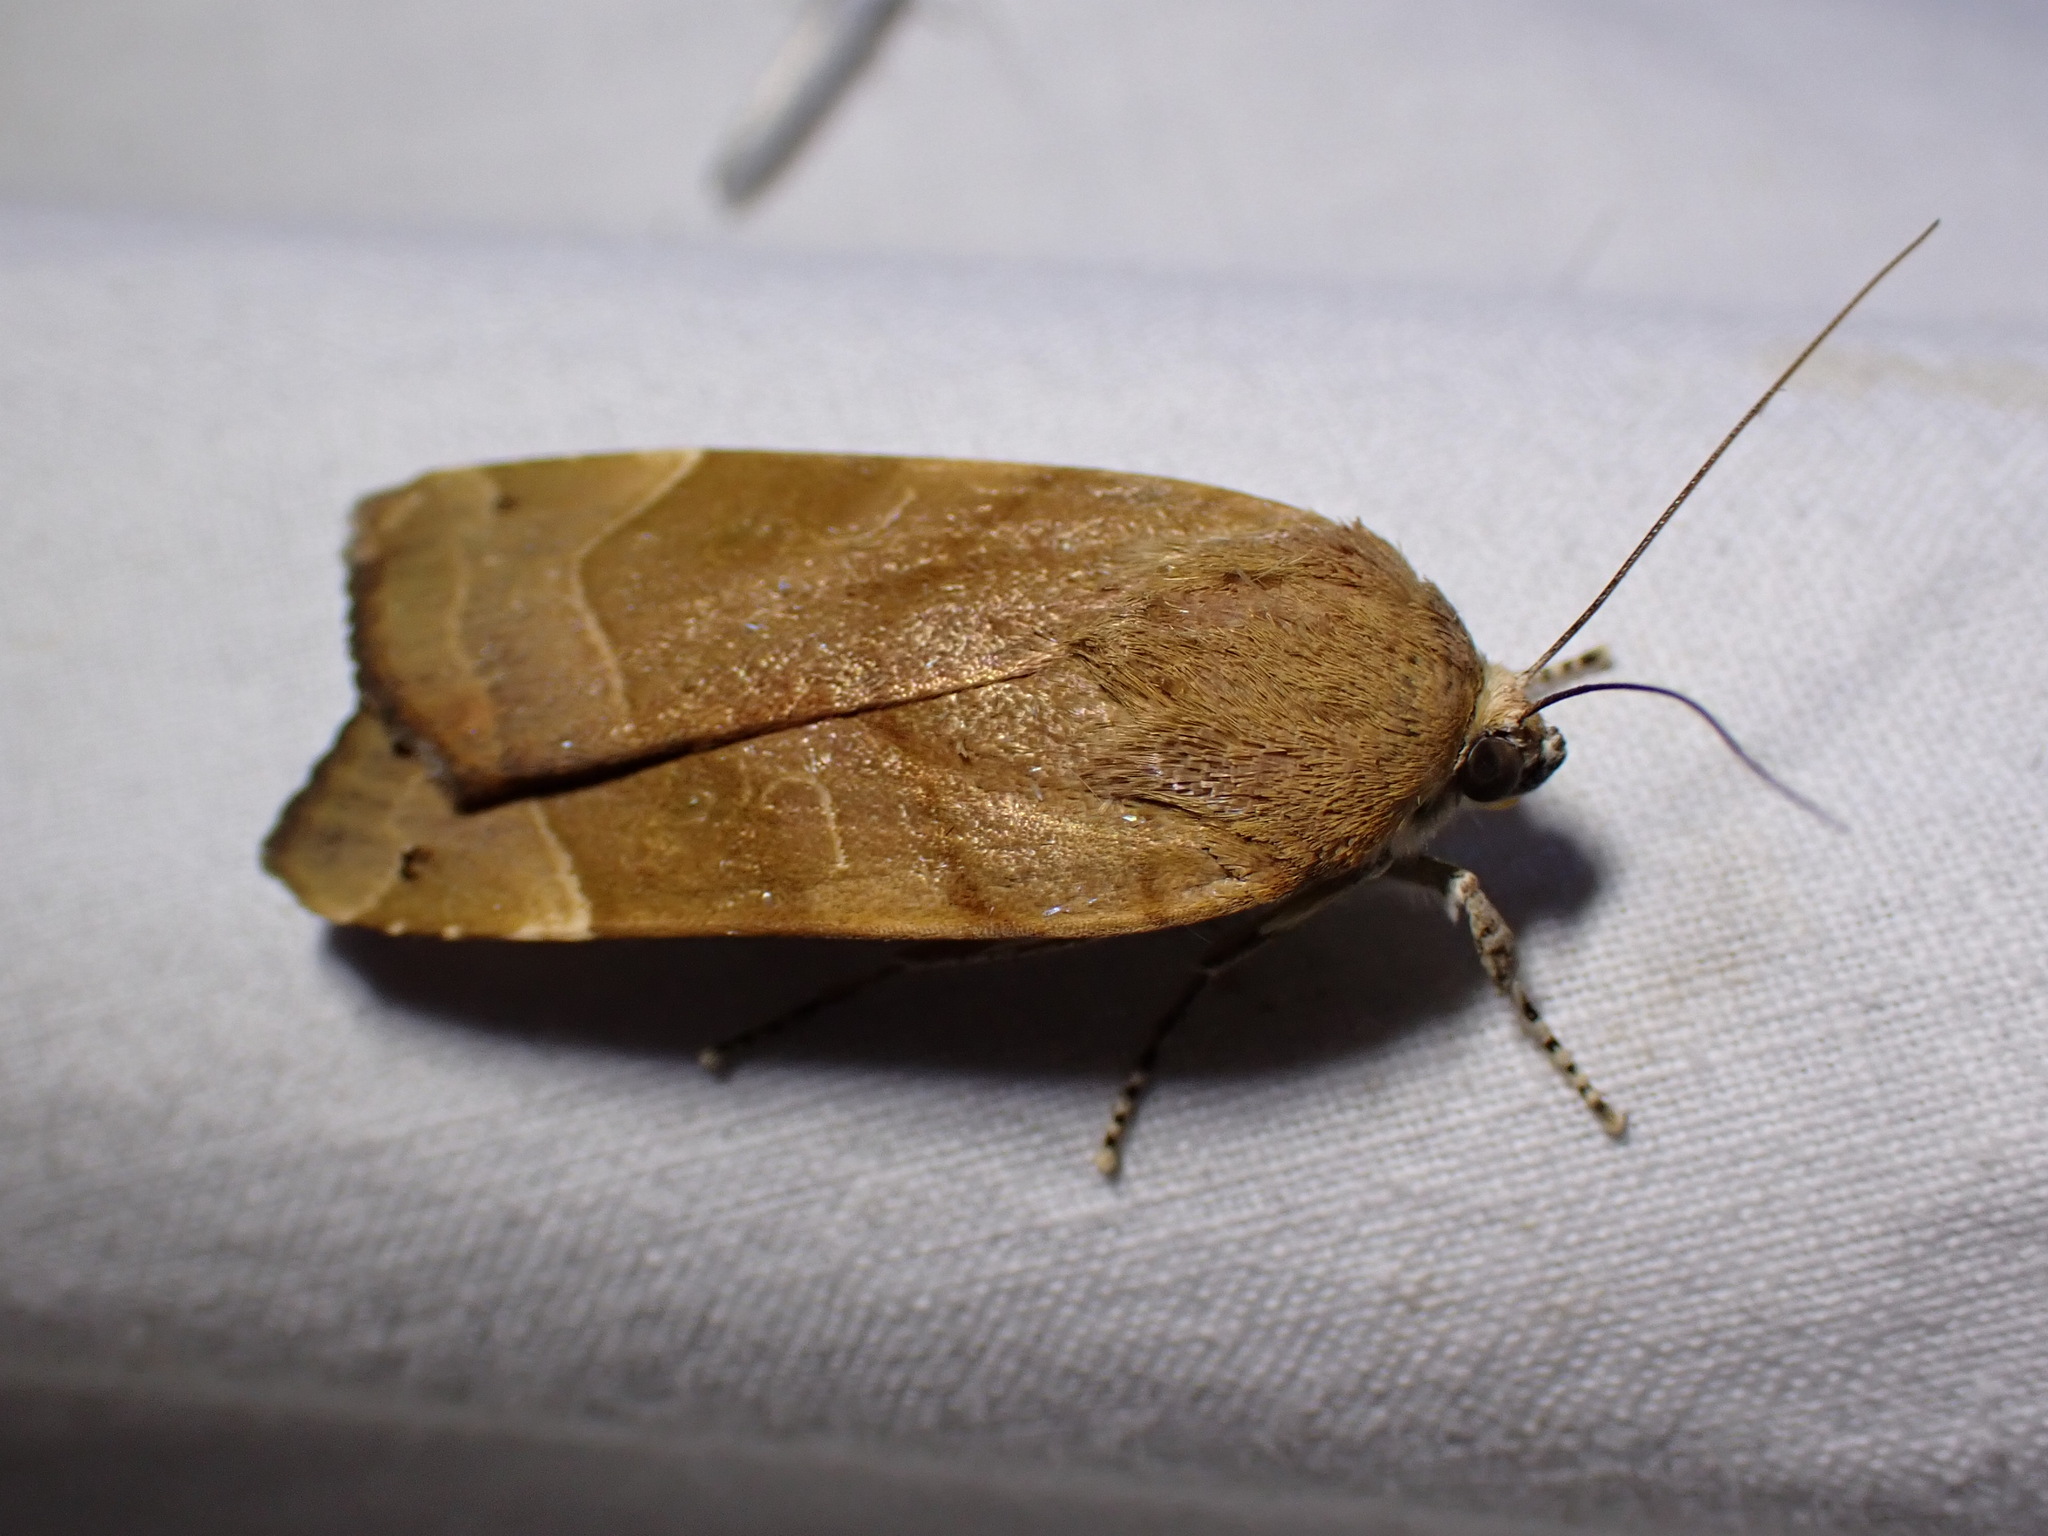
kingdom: Animalia
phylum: Arthropoda
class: Insecta
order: Lepidoptera
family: Noctuidae
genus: Noctua
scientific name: Noctua fimbriata
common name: Broad-bordered yellow underwing
